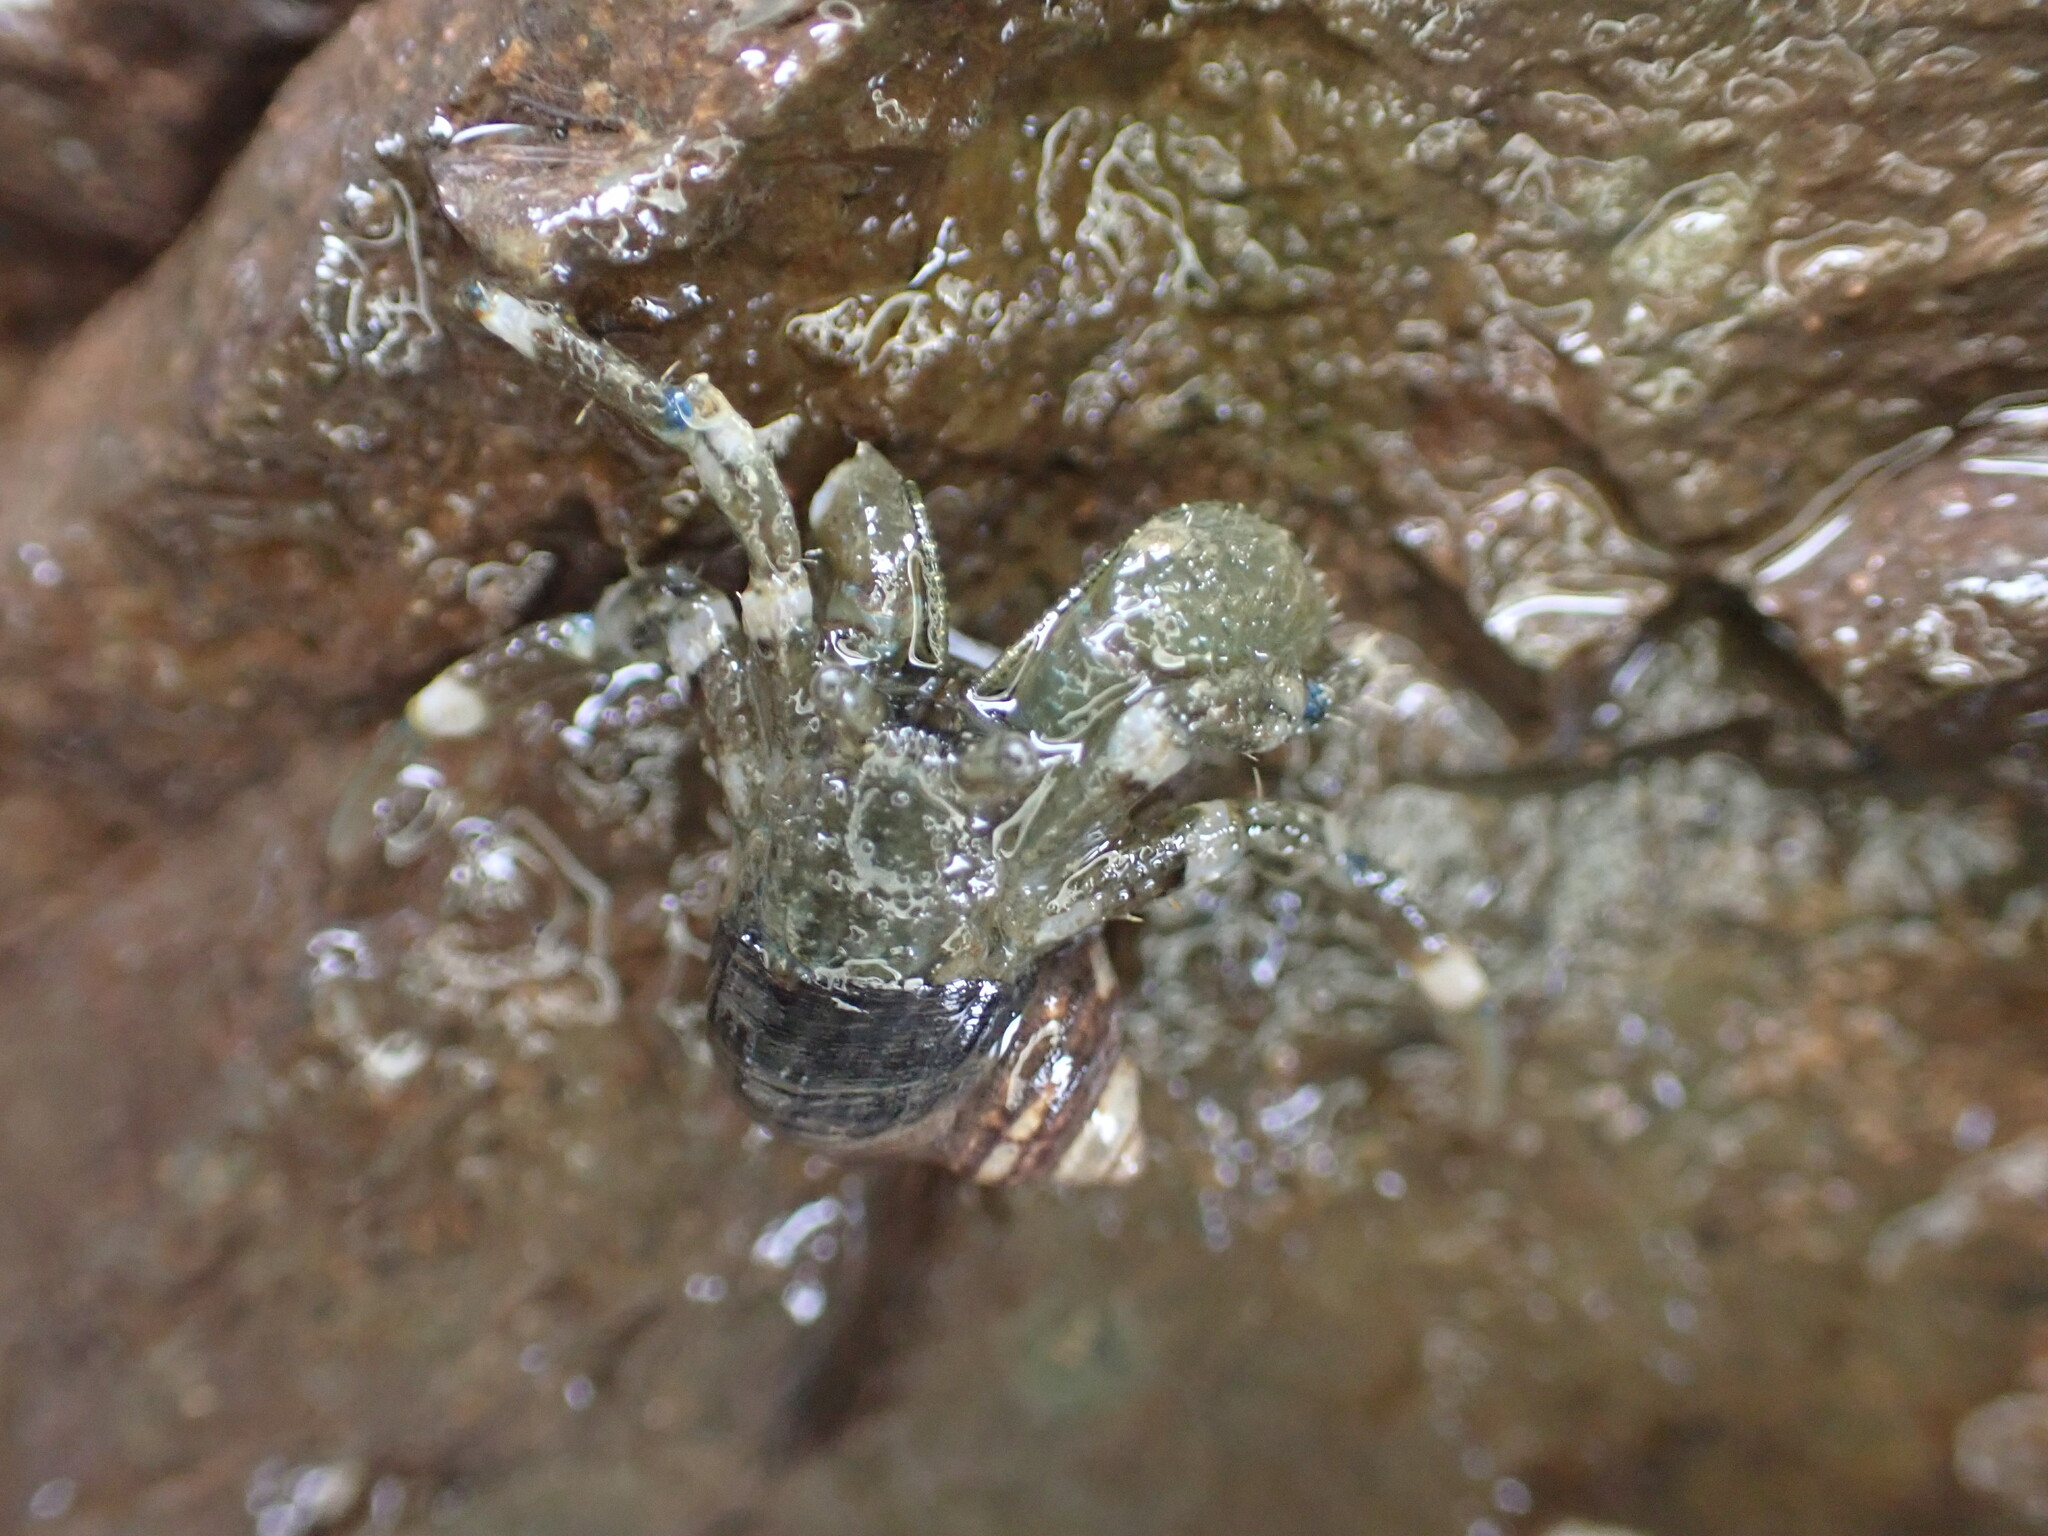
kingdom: Animalia
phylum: Arthropoda
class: Malacostraca
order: Decapoda
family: Paguridae
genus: Pagurus
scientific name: Pagurus hirsutiusculus
